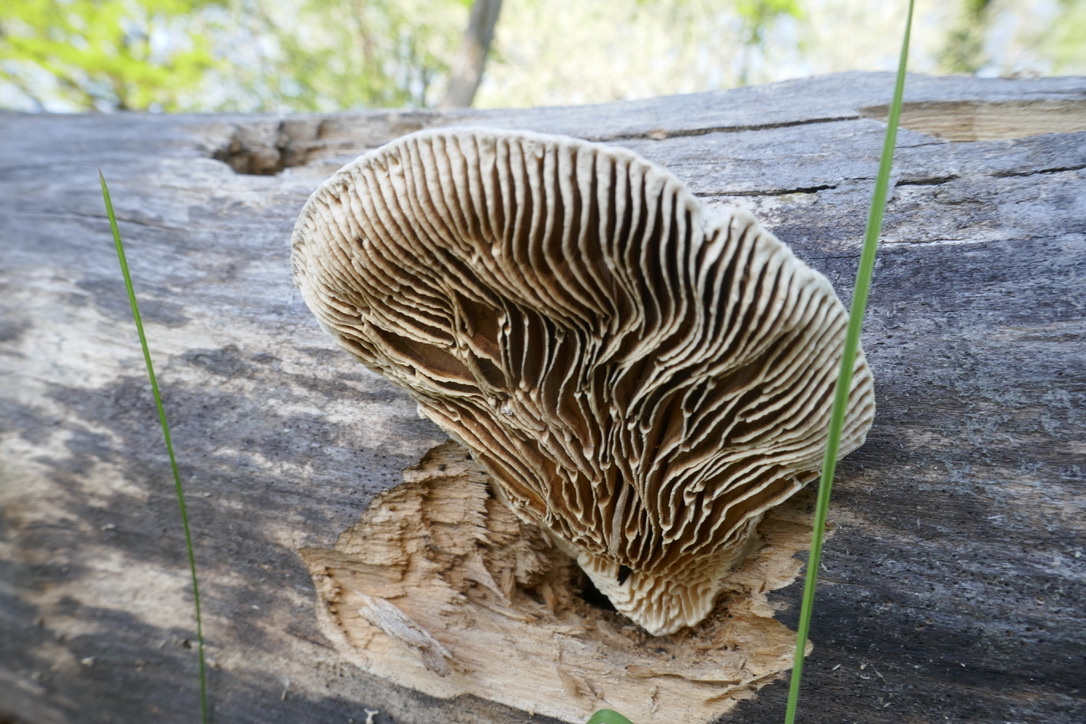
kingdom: Fungi
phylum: Basidiomycota
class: Agaricomycetes
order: Polyporales
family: Polyporaceae
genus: Cellulariella
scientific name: Cellulariella warnieri
